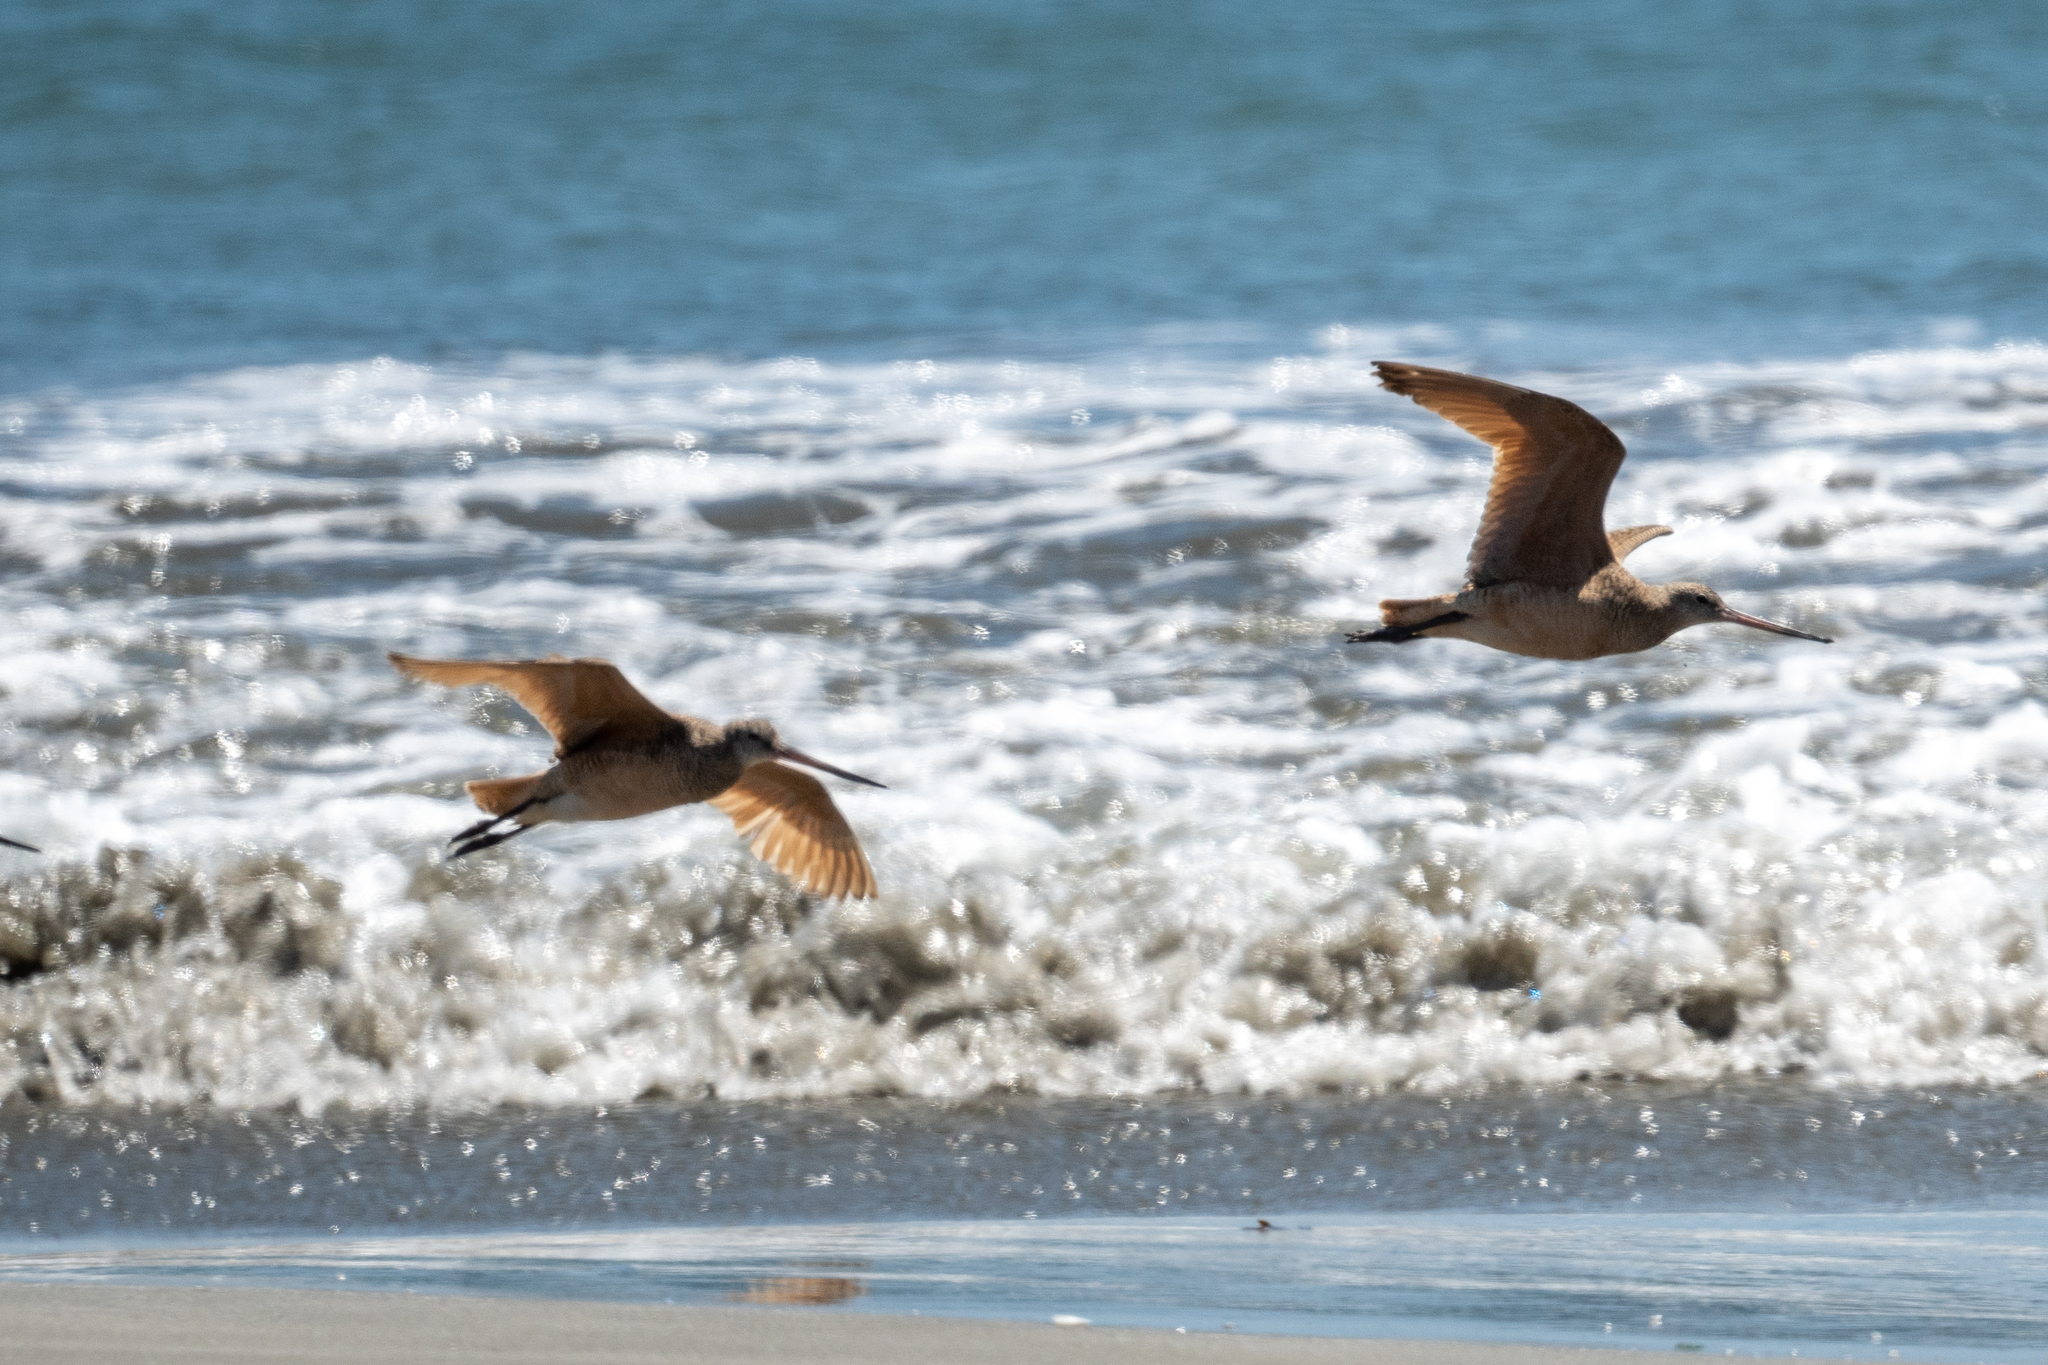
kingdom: Animalia
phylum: Chordata
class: Aves
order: Charadriiformes
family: Scolopacidae
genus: Limosa
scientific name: Limosa fedoa
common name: Marbled godwit
